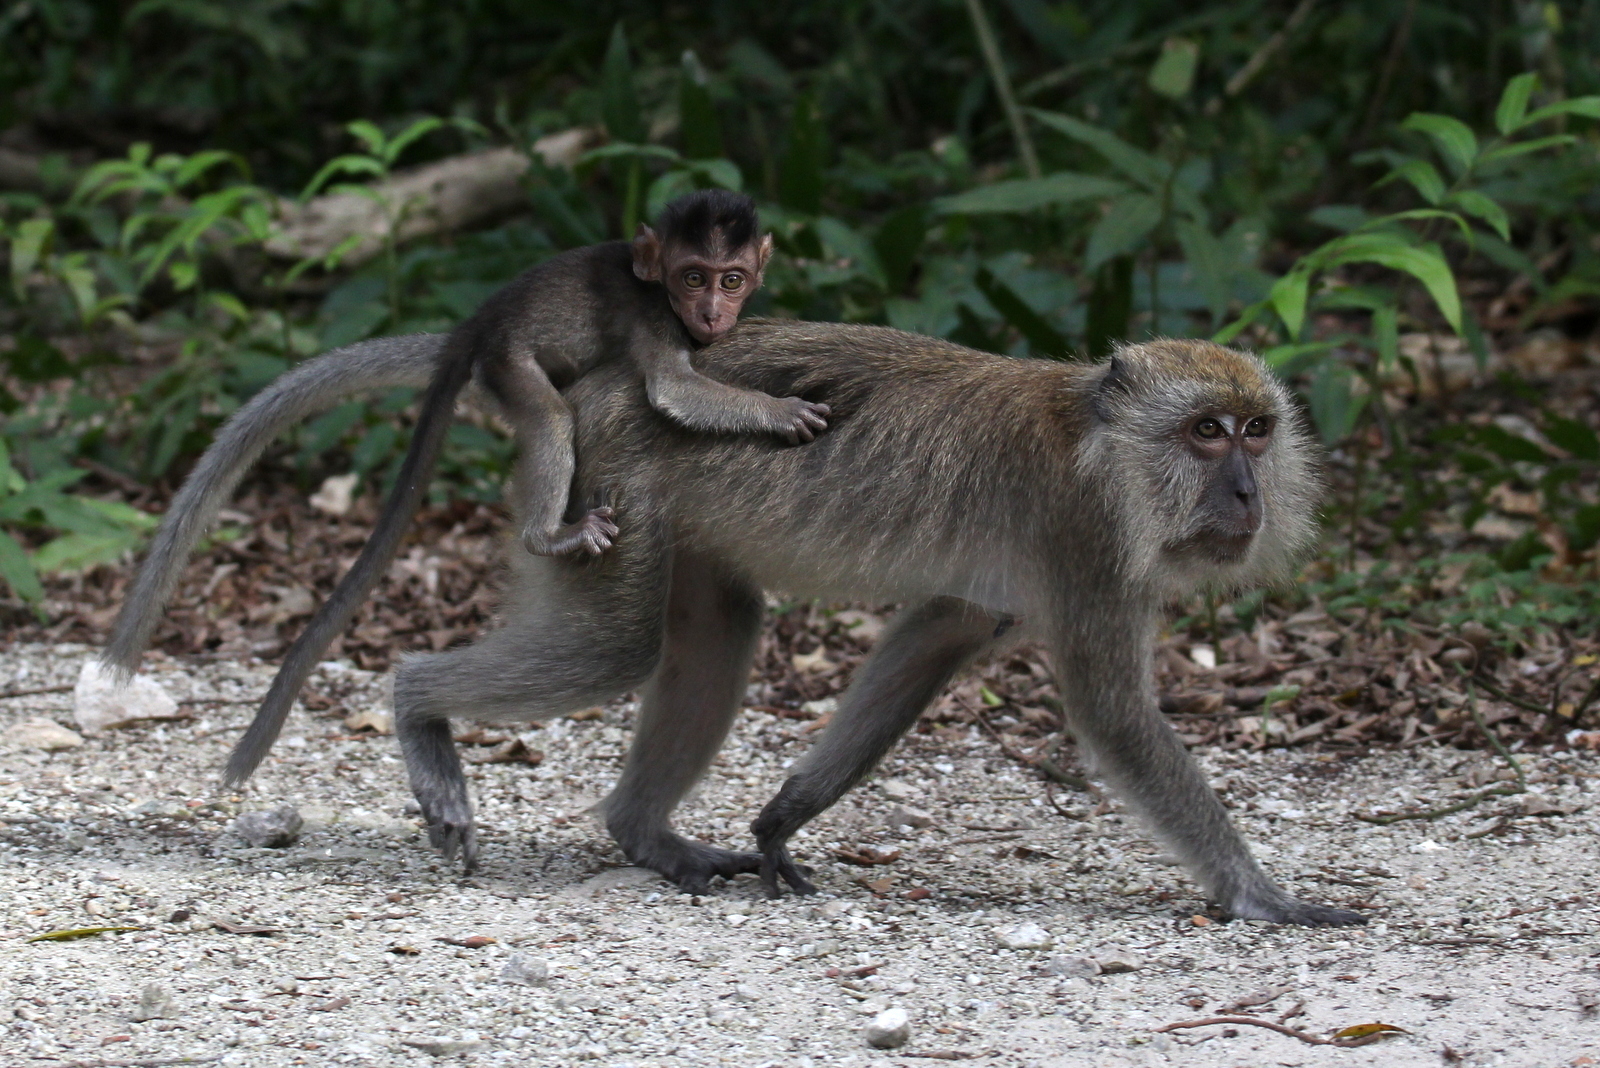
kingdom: Animalia
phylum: Chordata
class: Mammalia
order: Primates
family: Cercopithecidae
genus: Macaca
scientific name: Macaca fascicularis
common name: Crab-eating macaque
